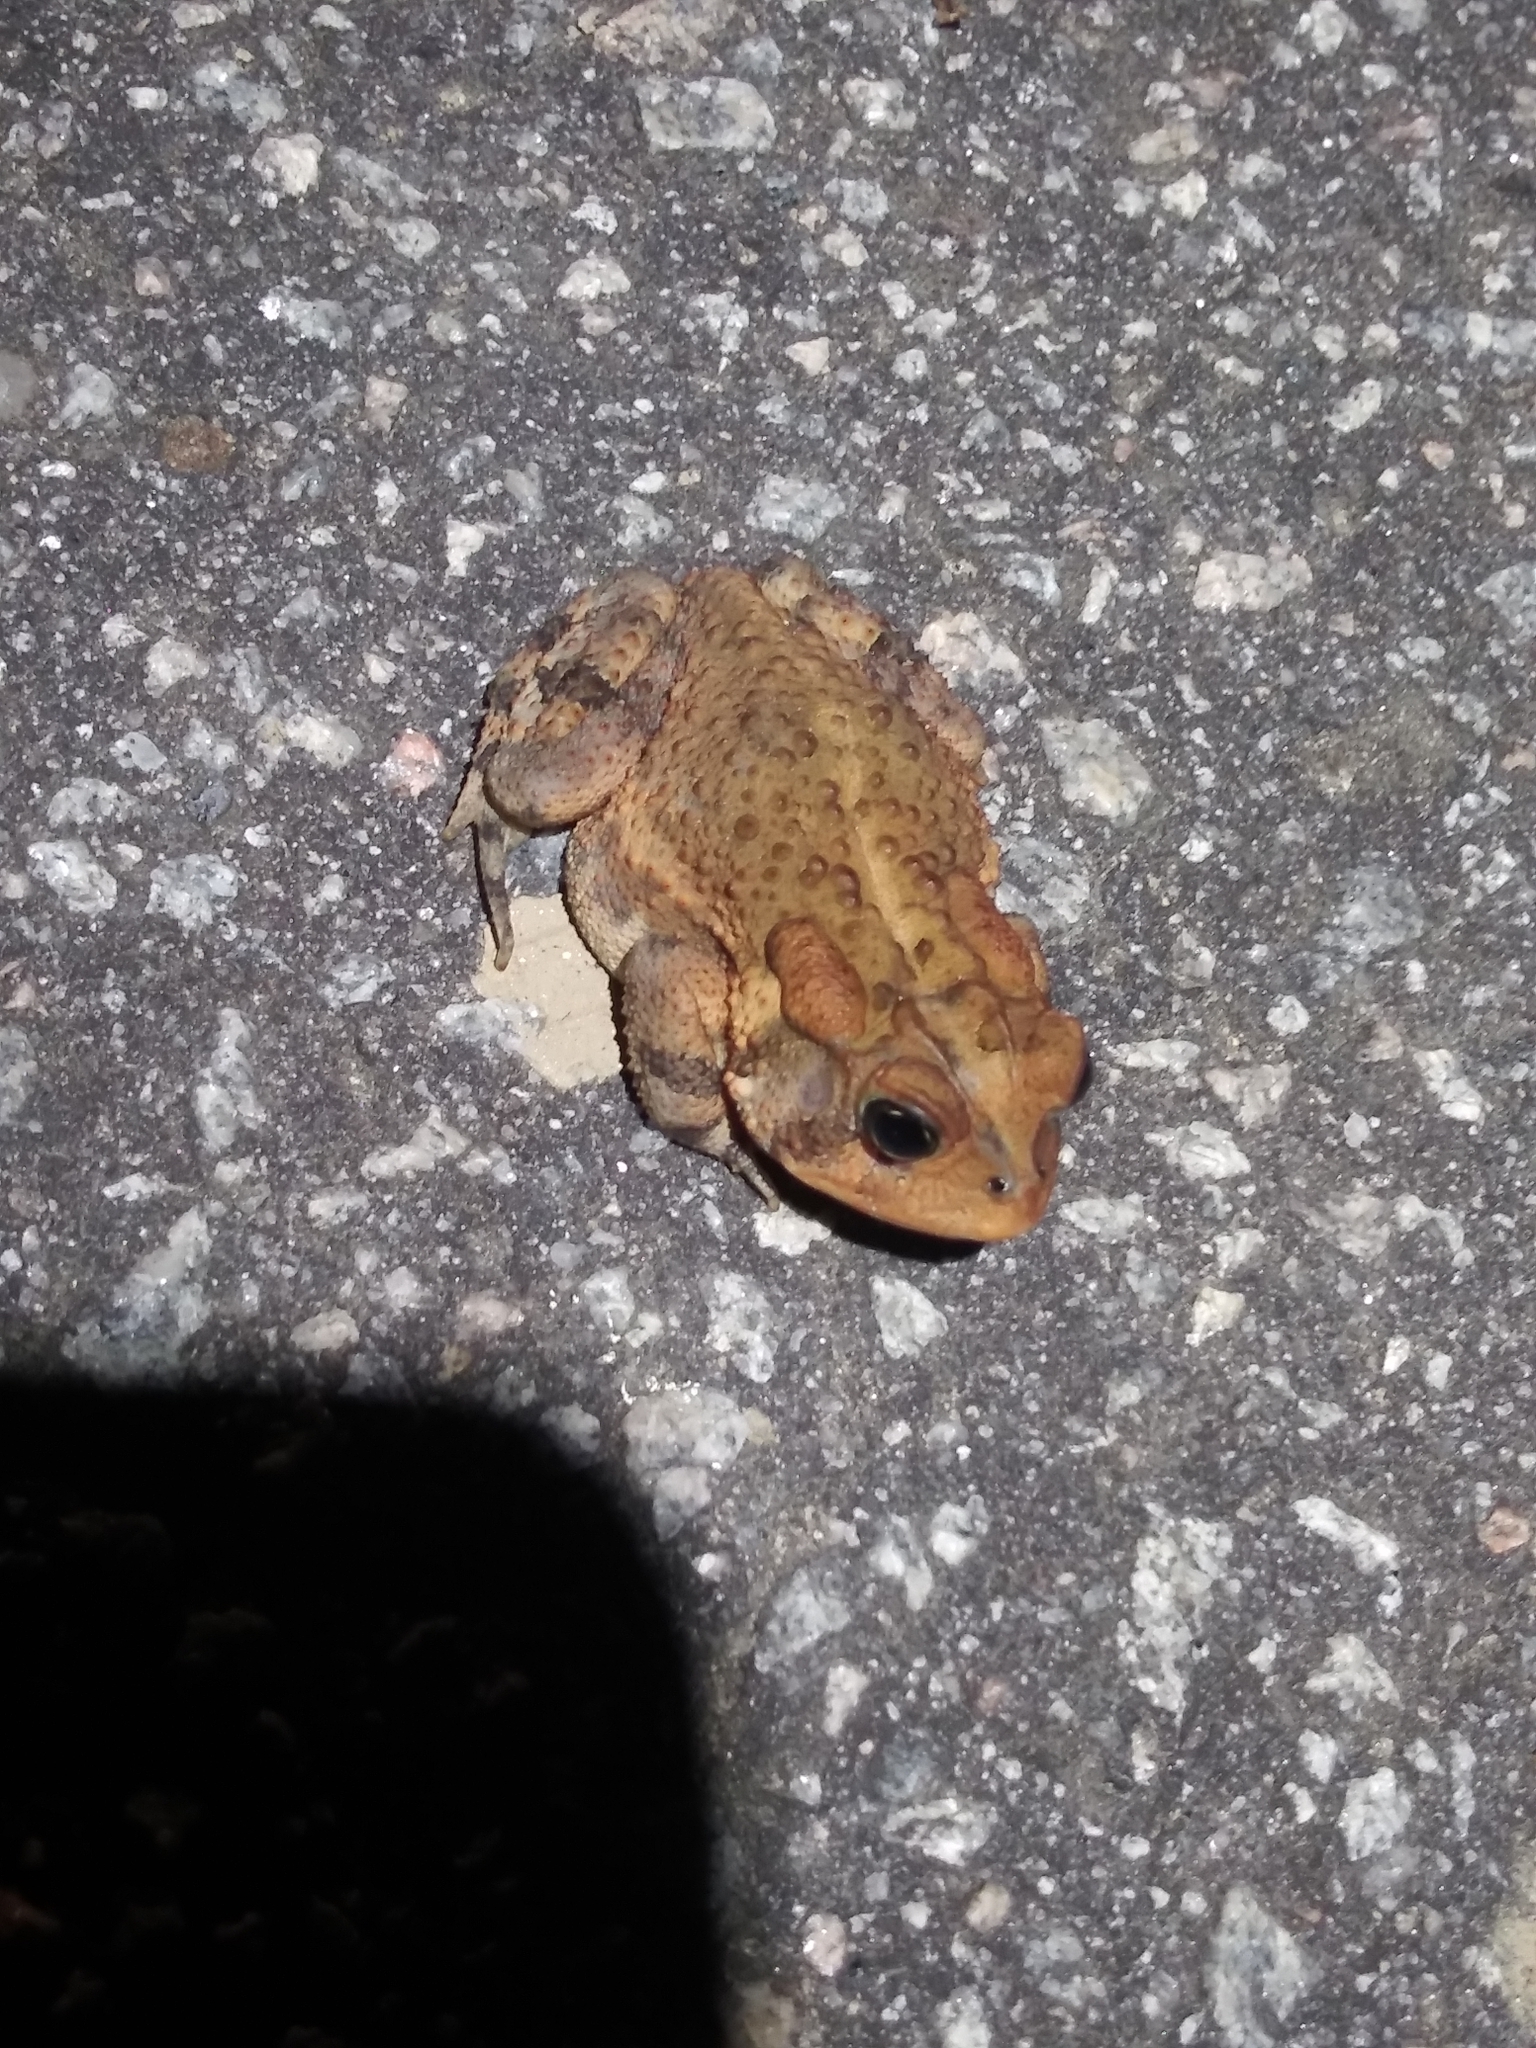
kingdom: Animalia
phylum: Chordata
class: Amphibia
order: Anura
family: Bufonidae
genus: Anaxyrus
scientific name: Anaxyrus terrestris
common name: Southern toad
